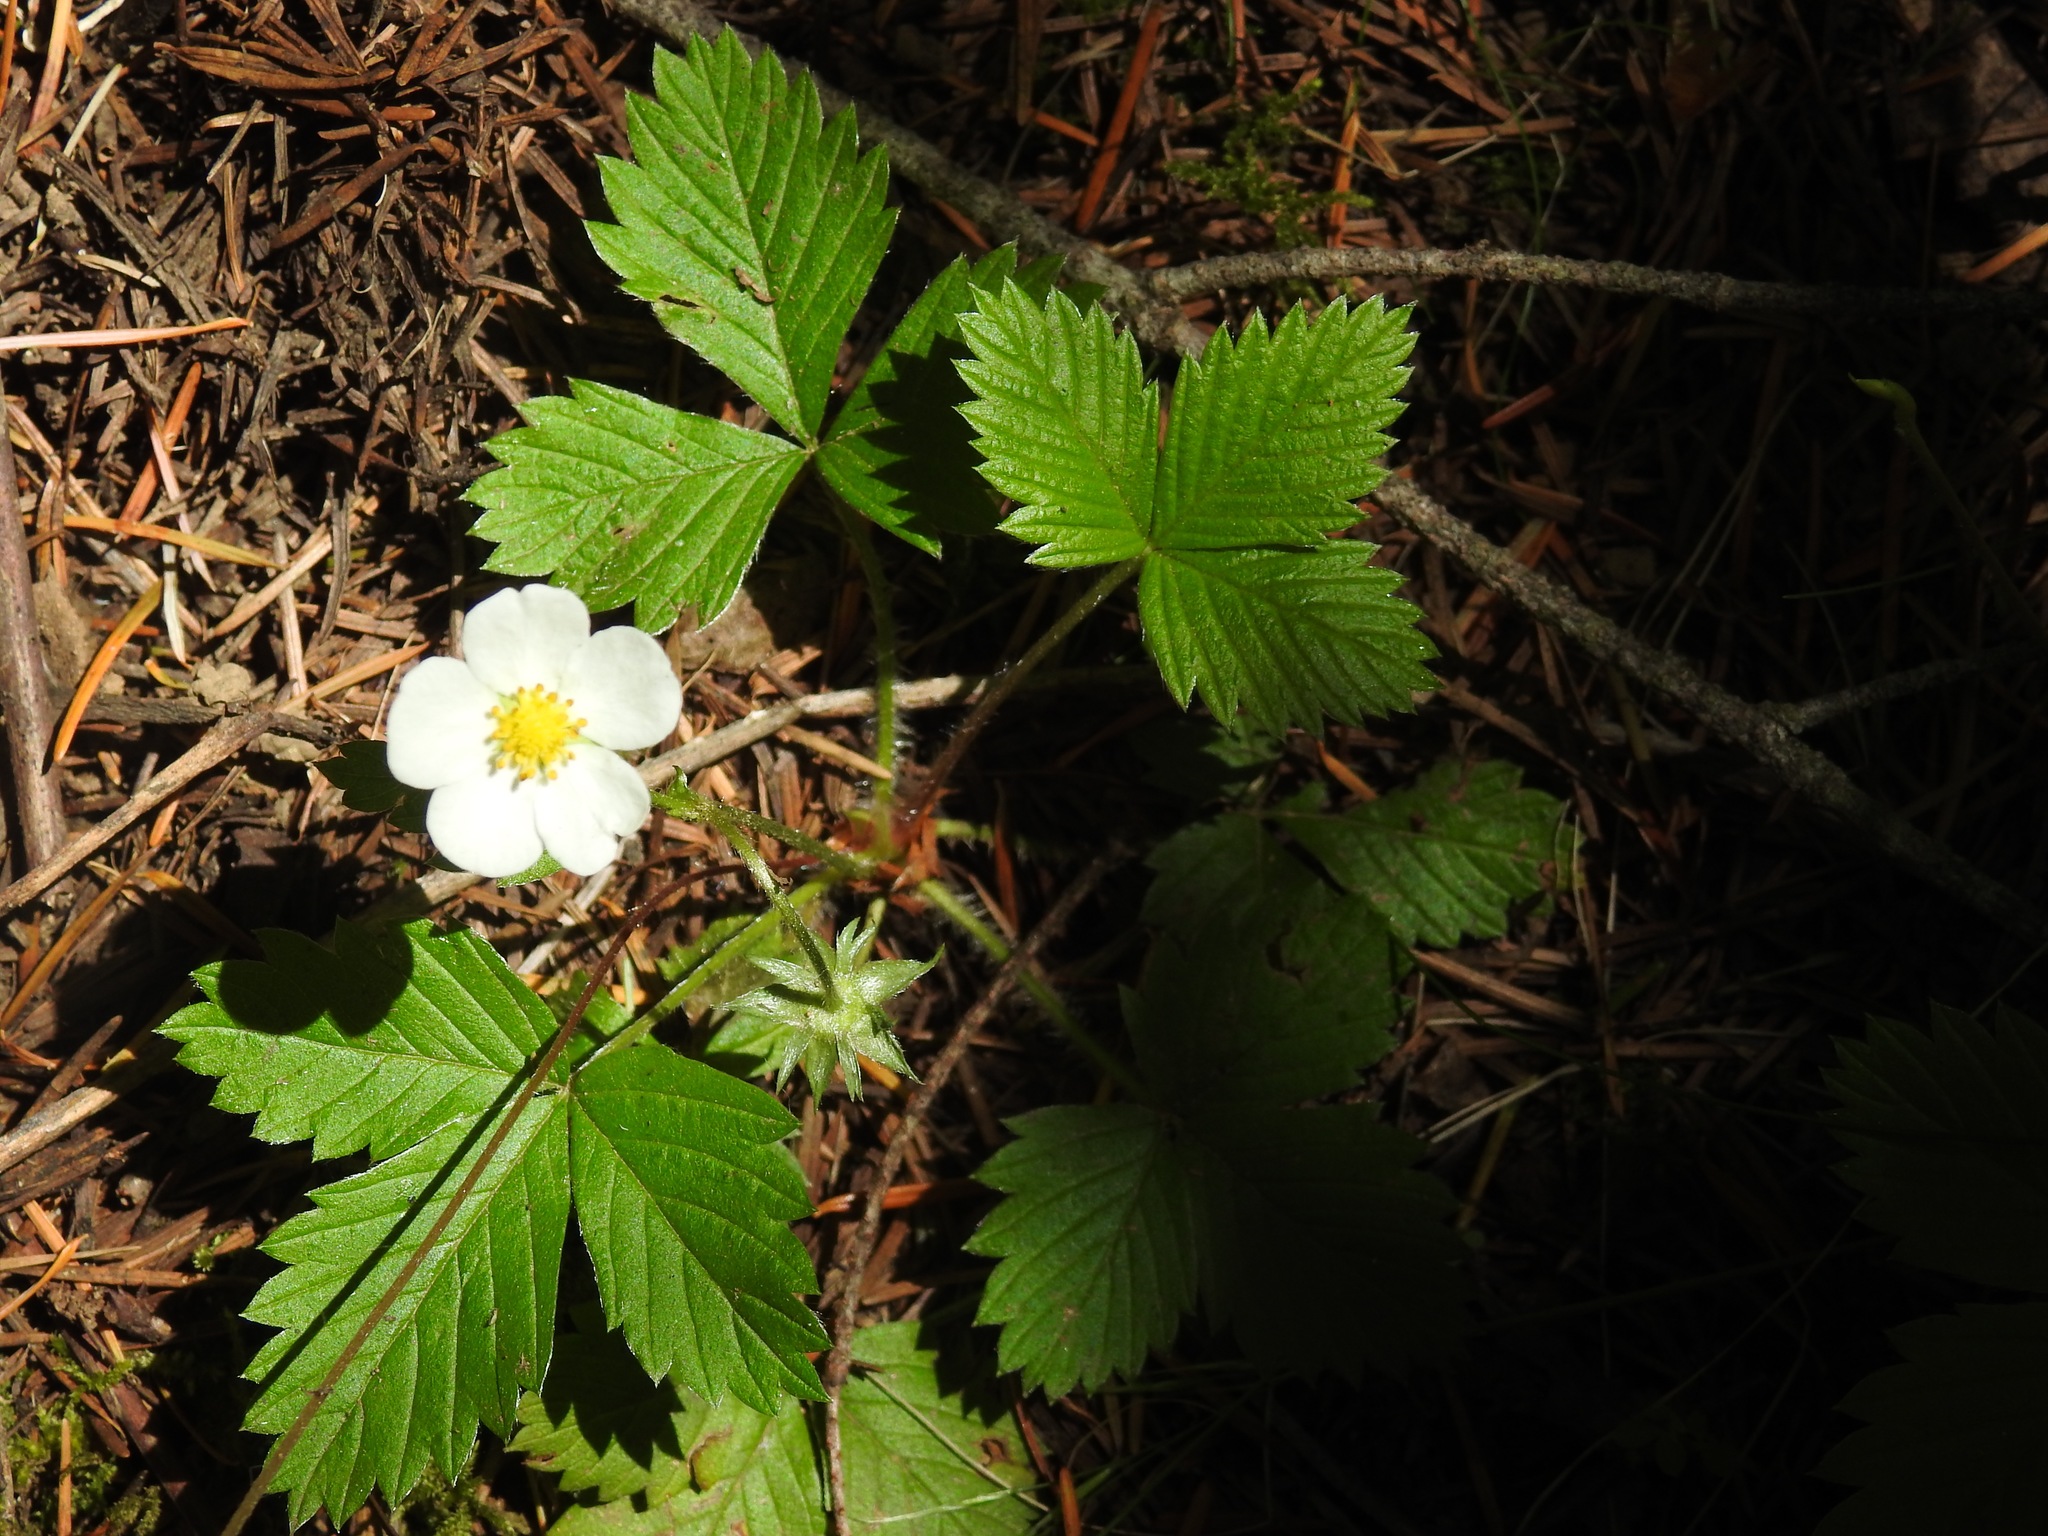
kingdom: Plantae
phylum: Tracheophyta
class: Magnoliopsida
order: Rosales
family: Rosaceae
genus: Fragaria
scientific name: Fragaria vesca
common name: Wild strawberry
